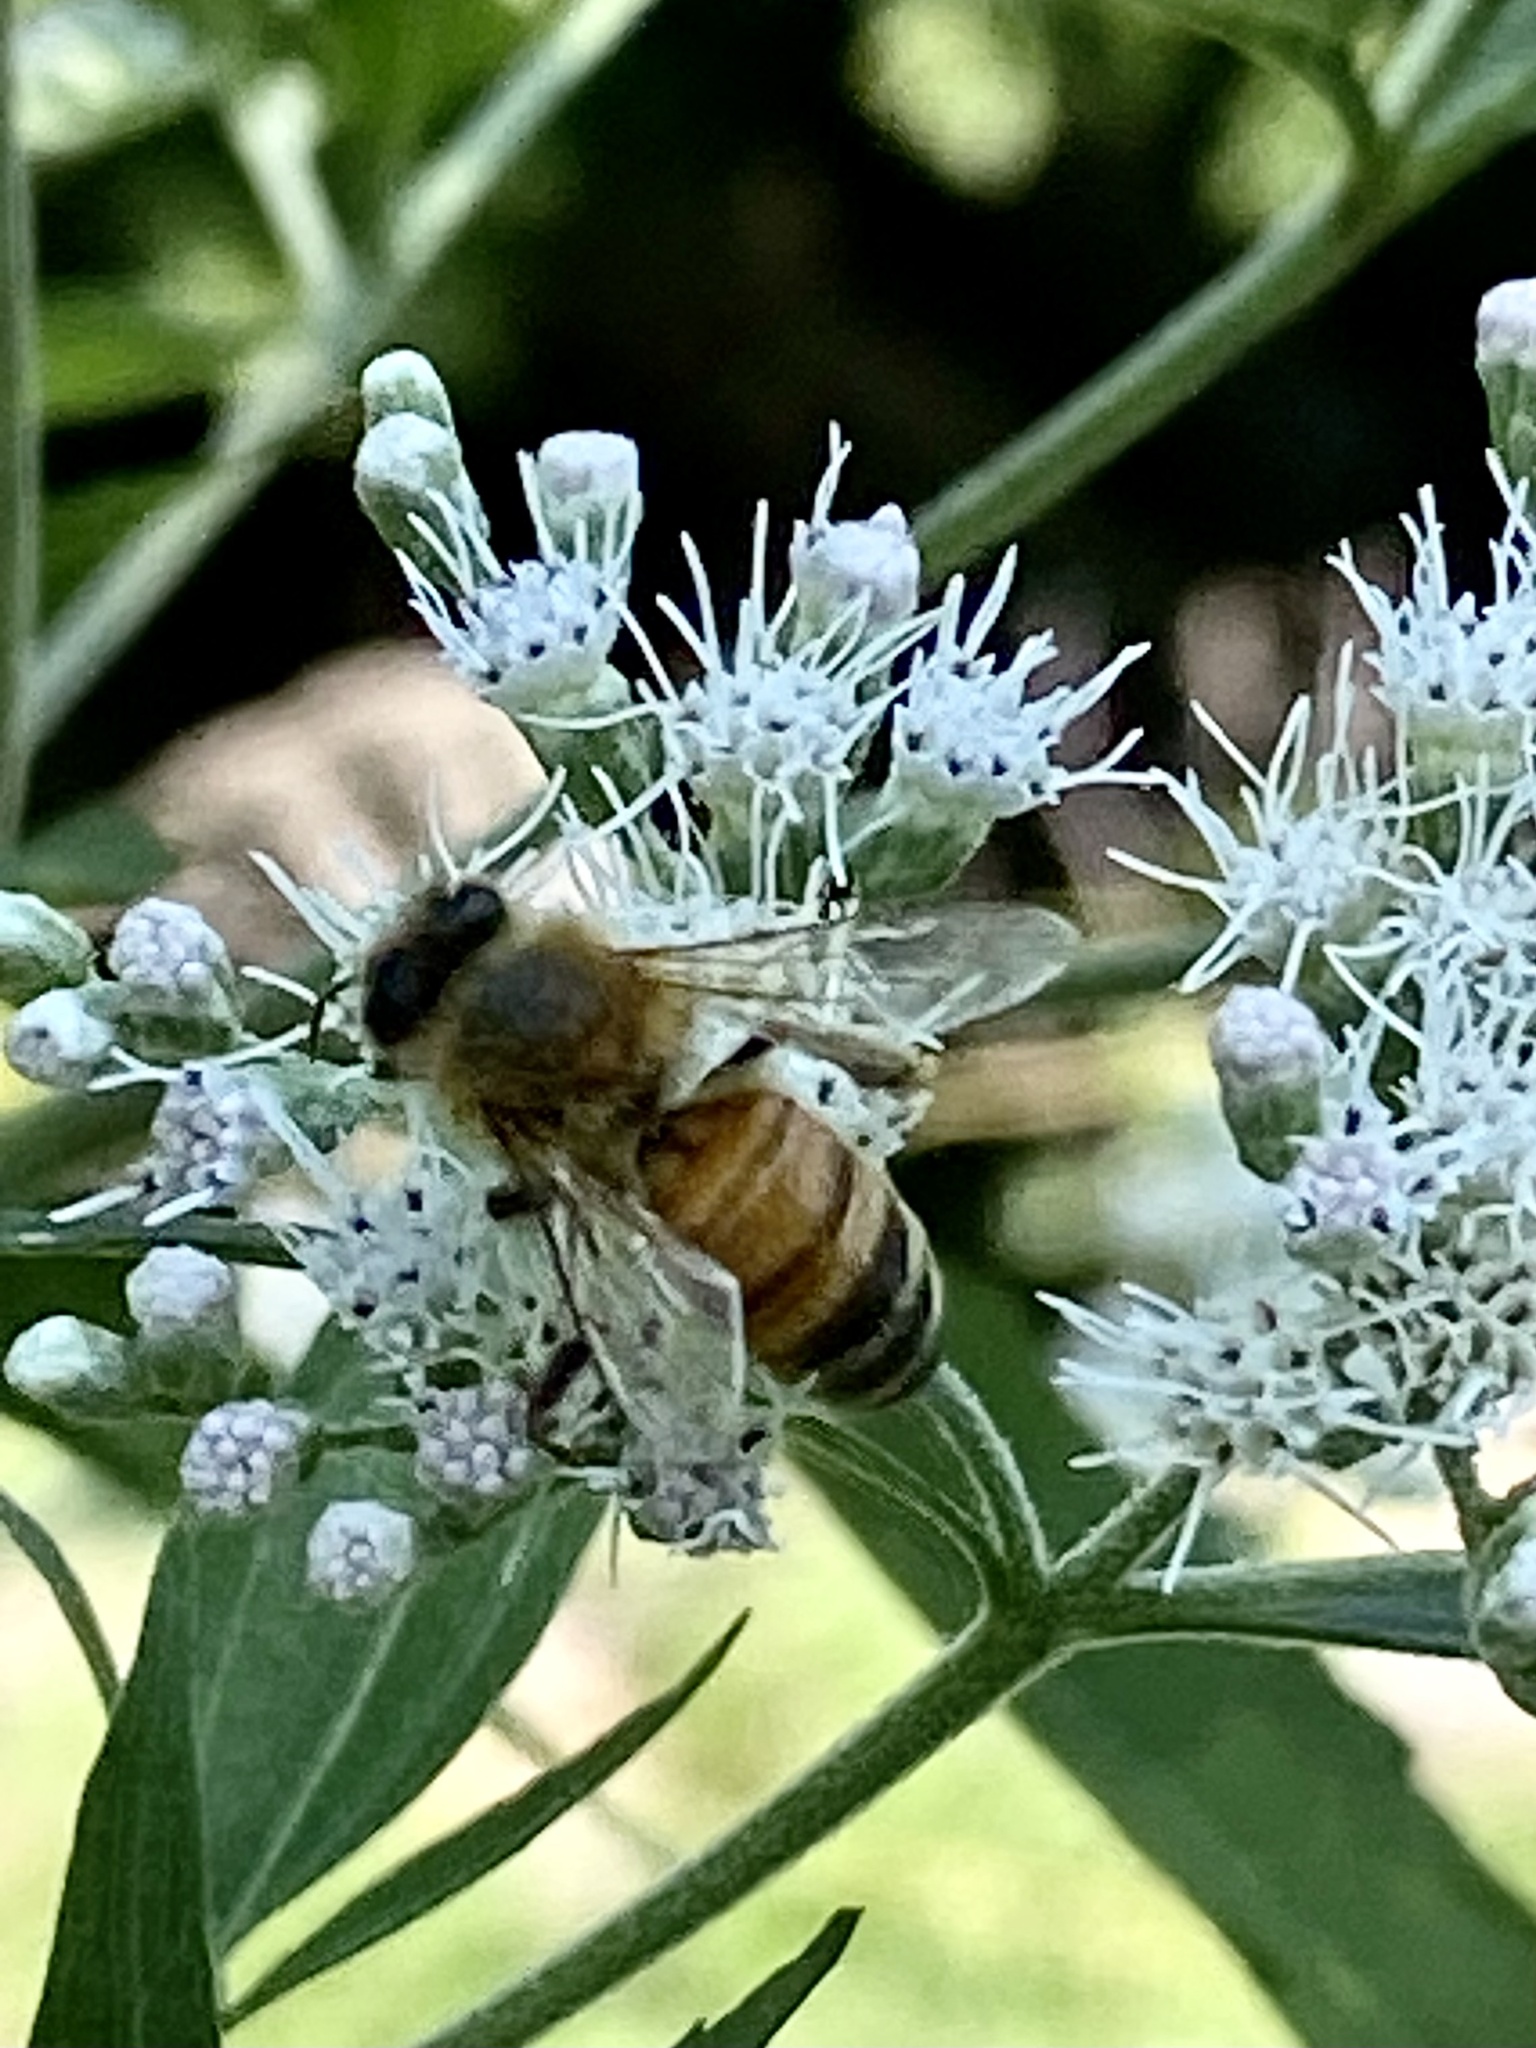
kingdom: Animalia
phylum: Arthropoda
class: Insecta
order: Hymenoptera
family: Apidae
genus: Apis
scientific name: Apis mellifera
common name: Honey bee
